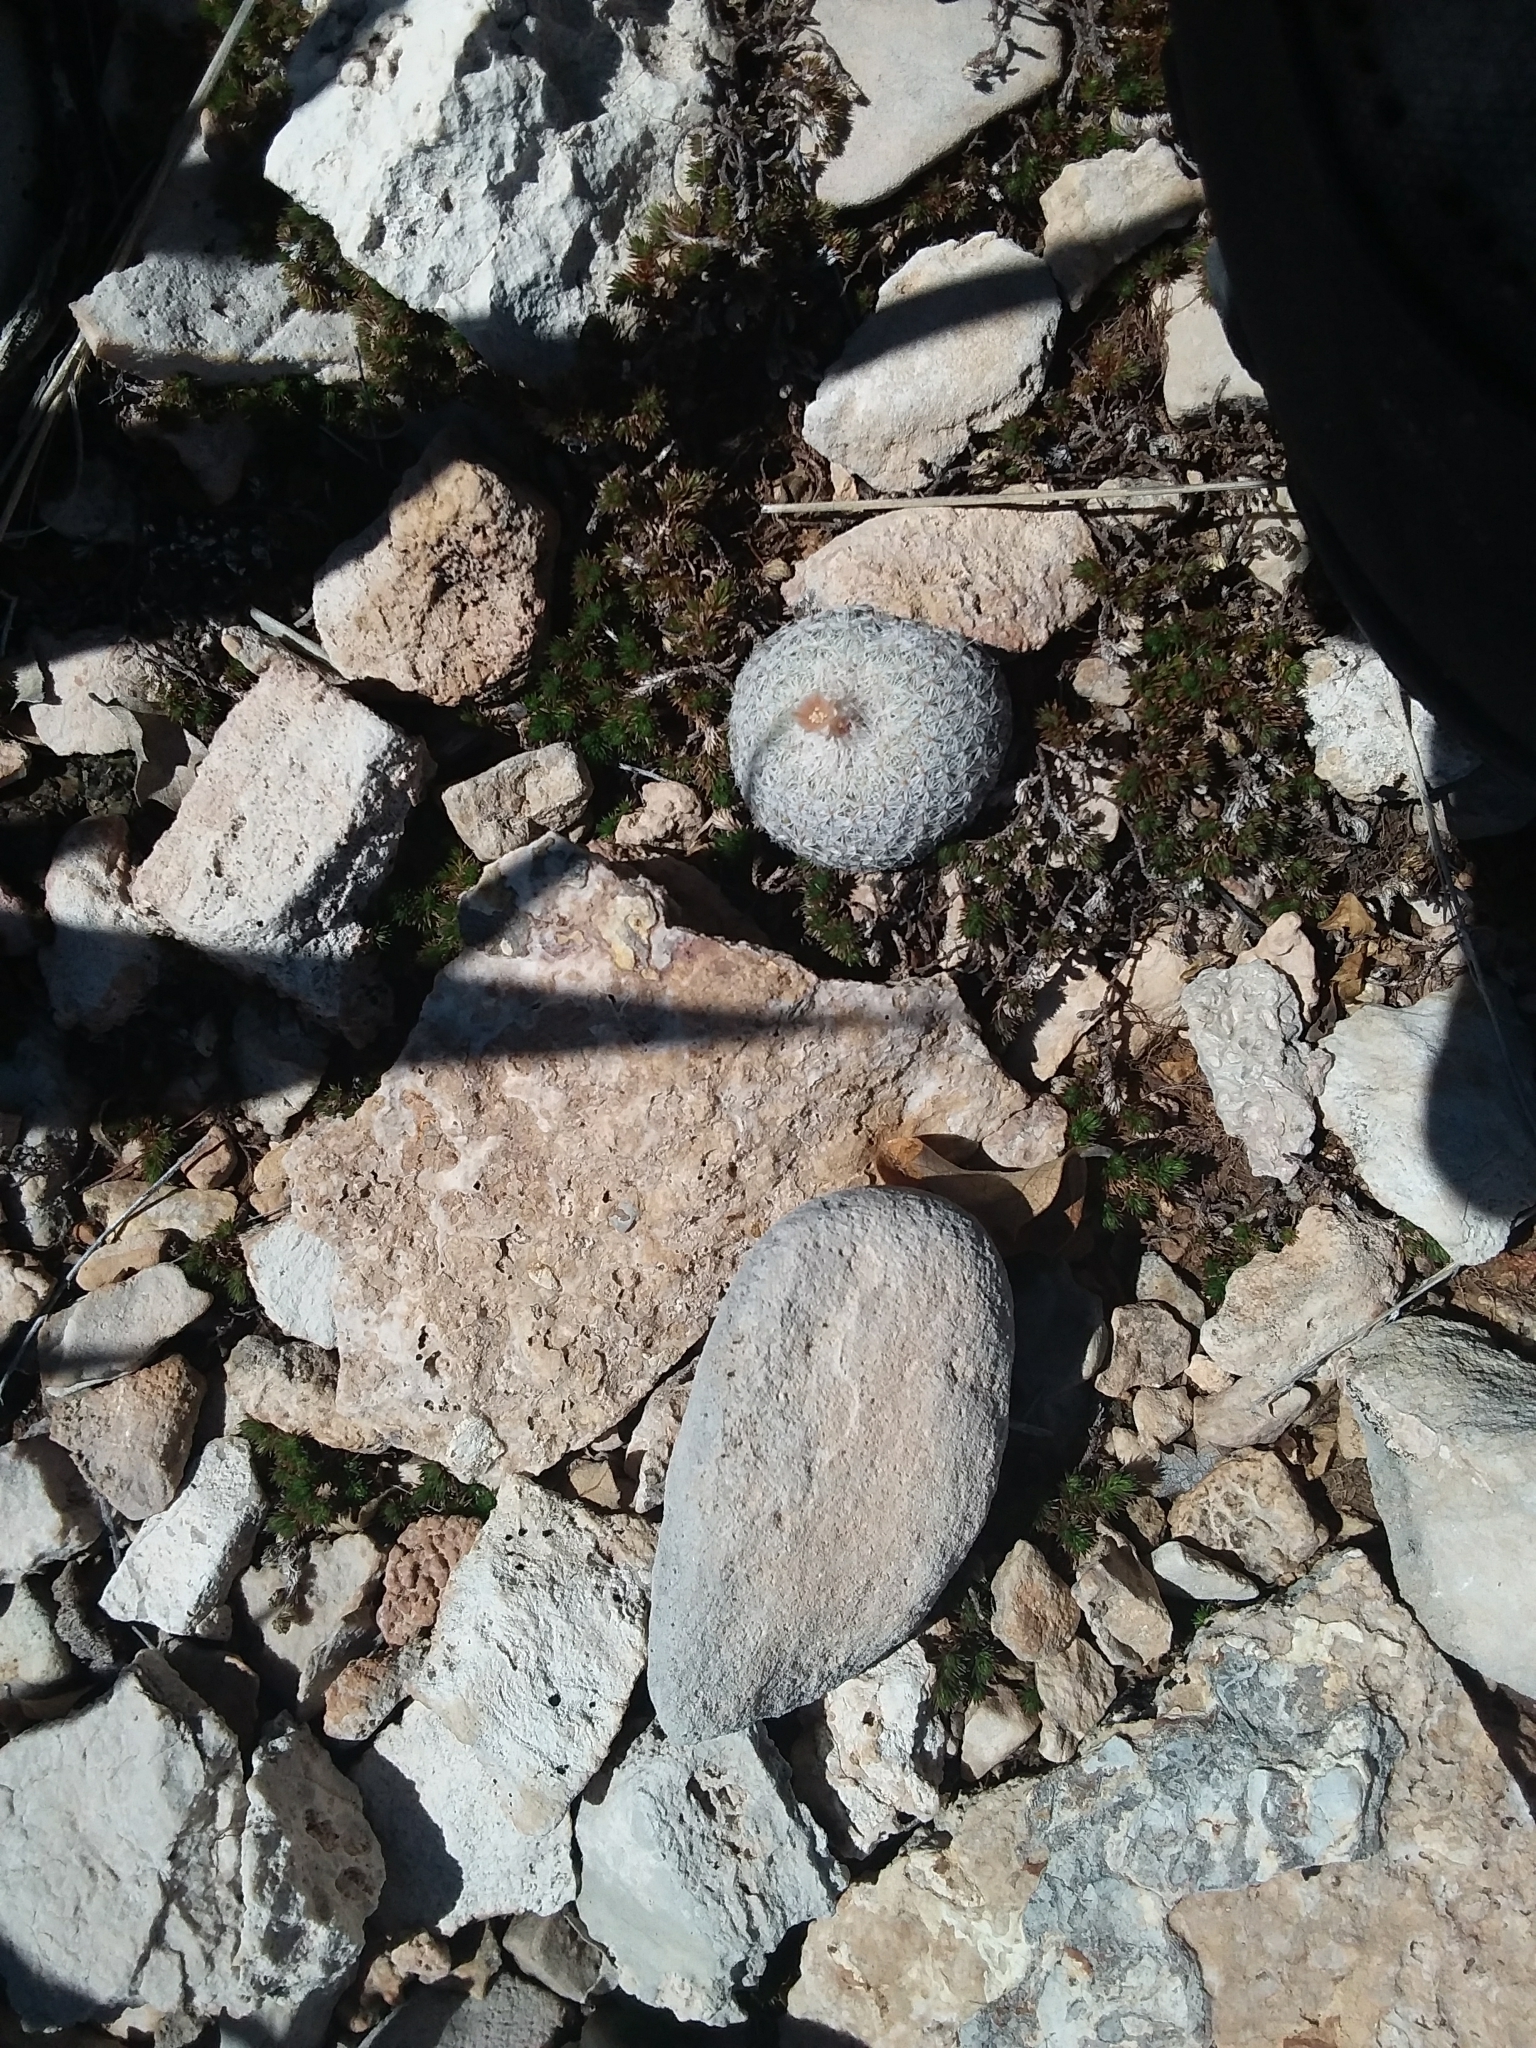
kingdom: Plantae
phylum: Tracheophyta
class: Magnoliopsida
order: Caryophyllales
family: Cactaceae
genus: Epithelantha
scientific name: Epithelantha micromeris
